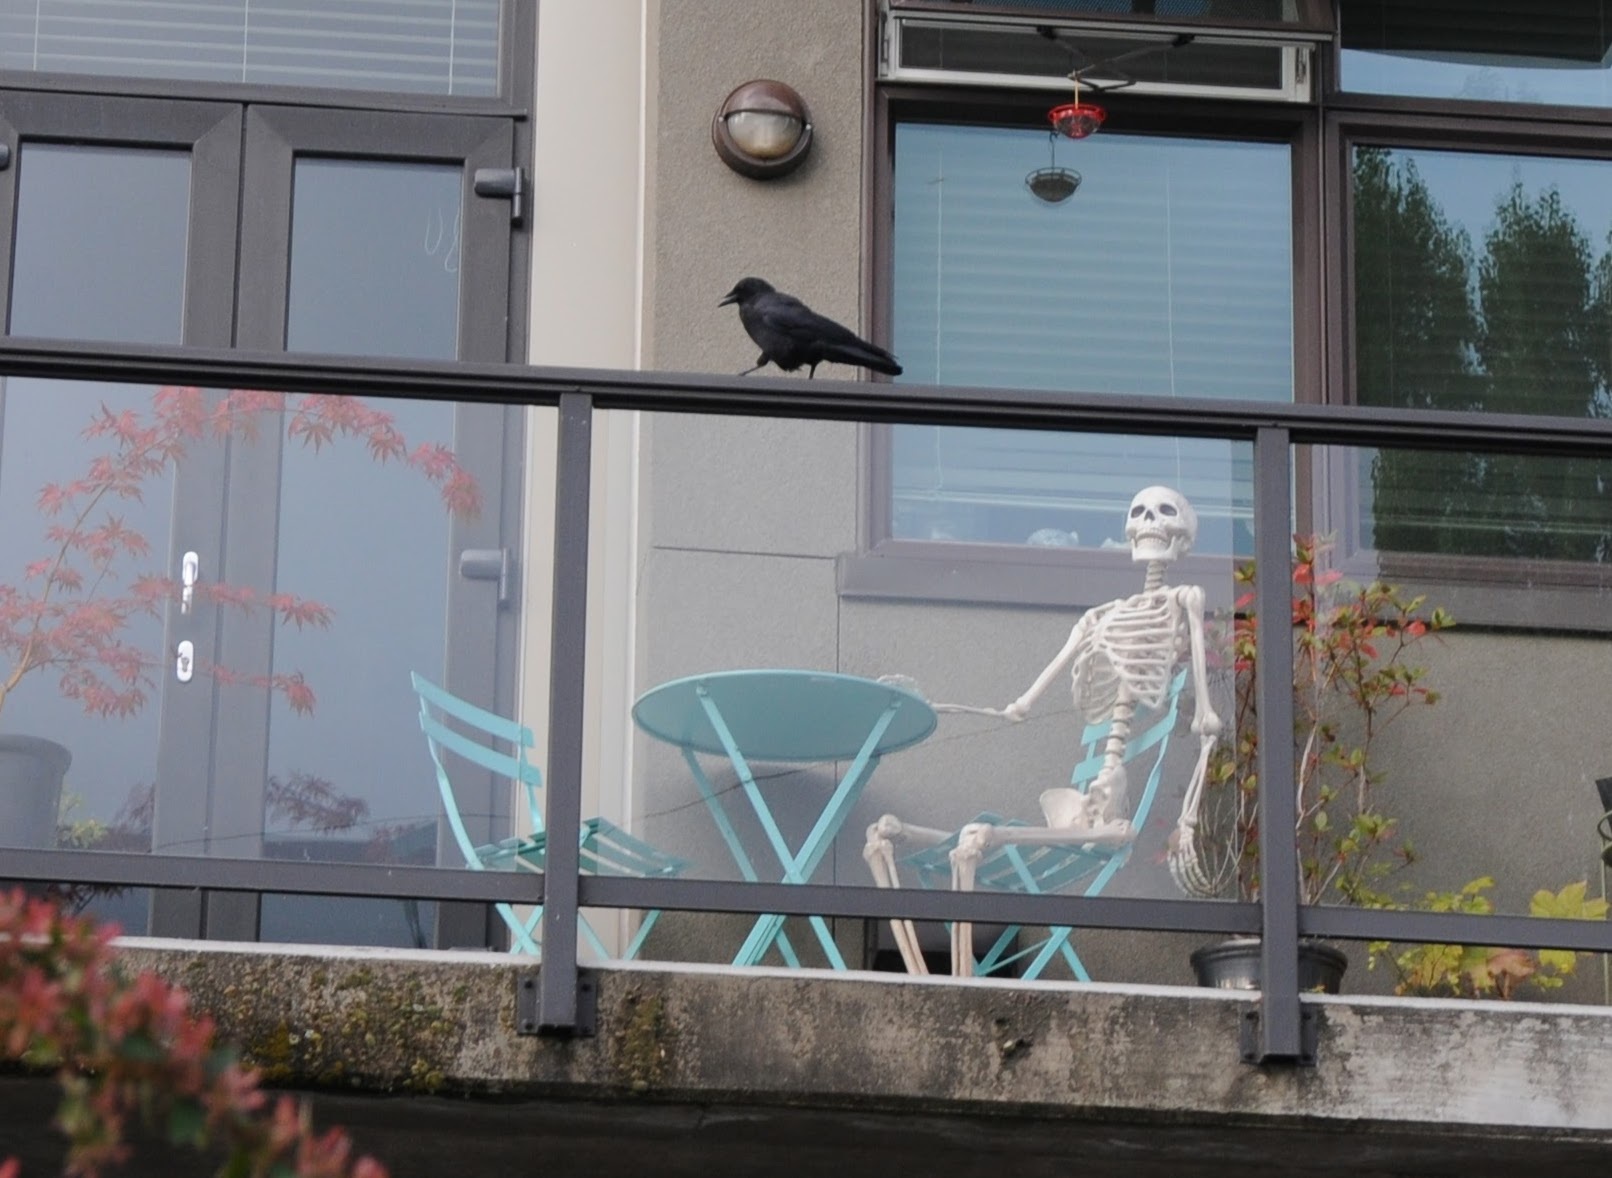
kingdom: Animalia
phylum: Chordata
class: Aves
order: Passeriformes
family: Corvidae
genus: Corvus
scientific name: Corvus brachyrhynchos
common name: American crow
